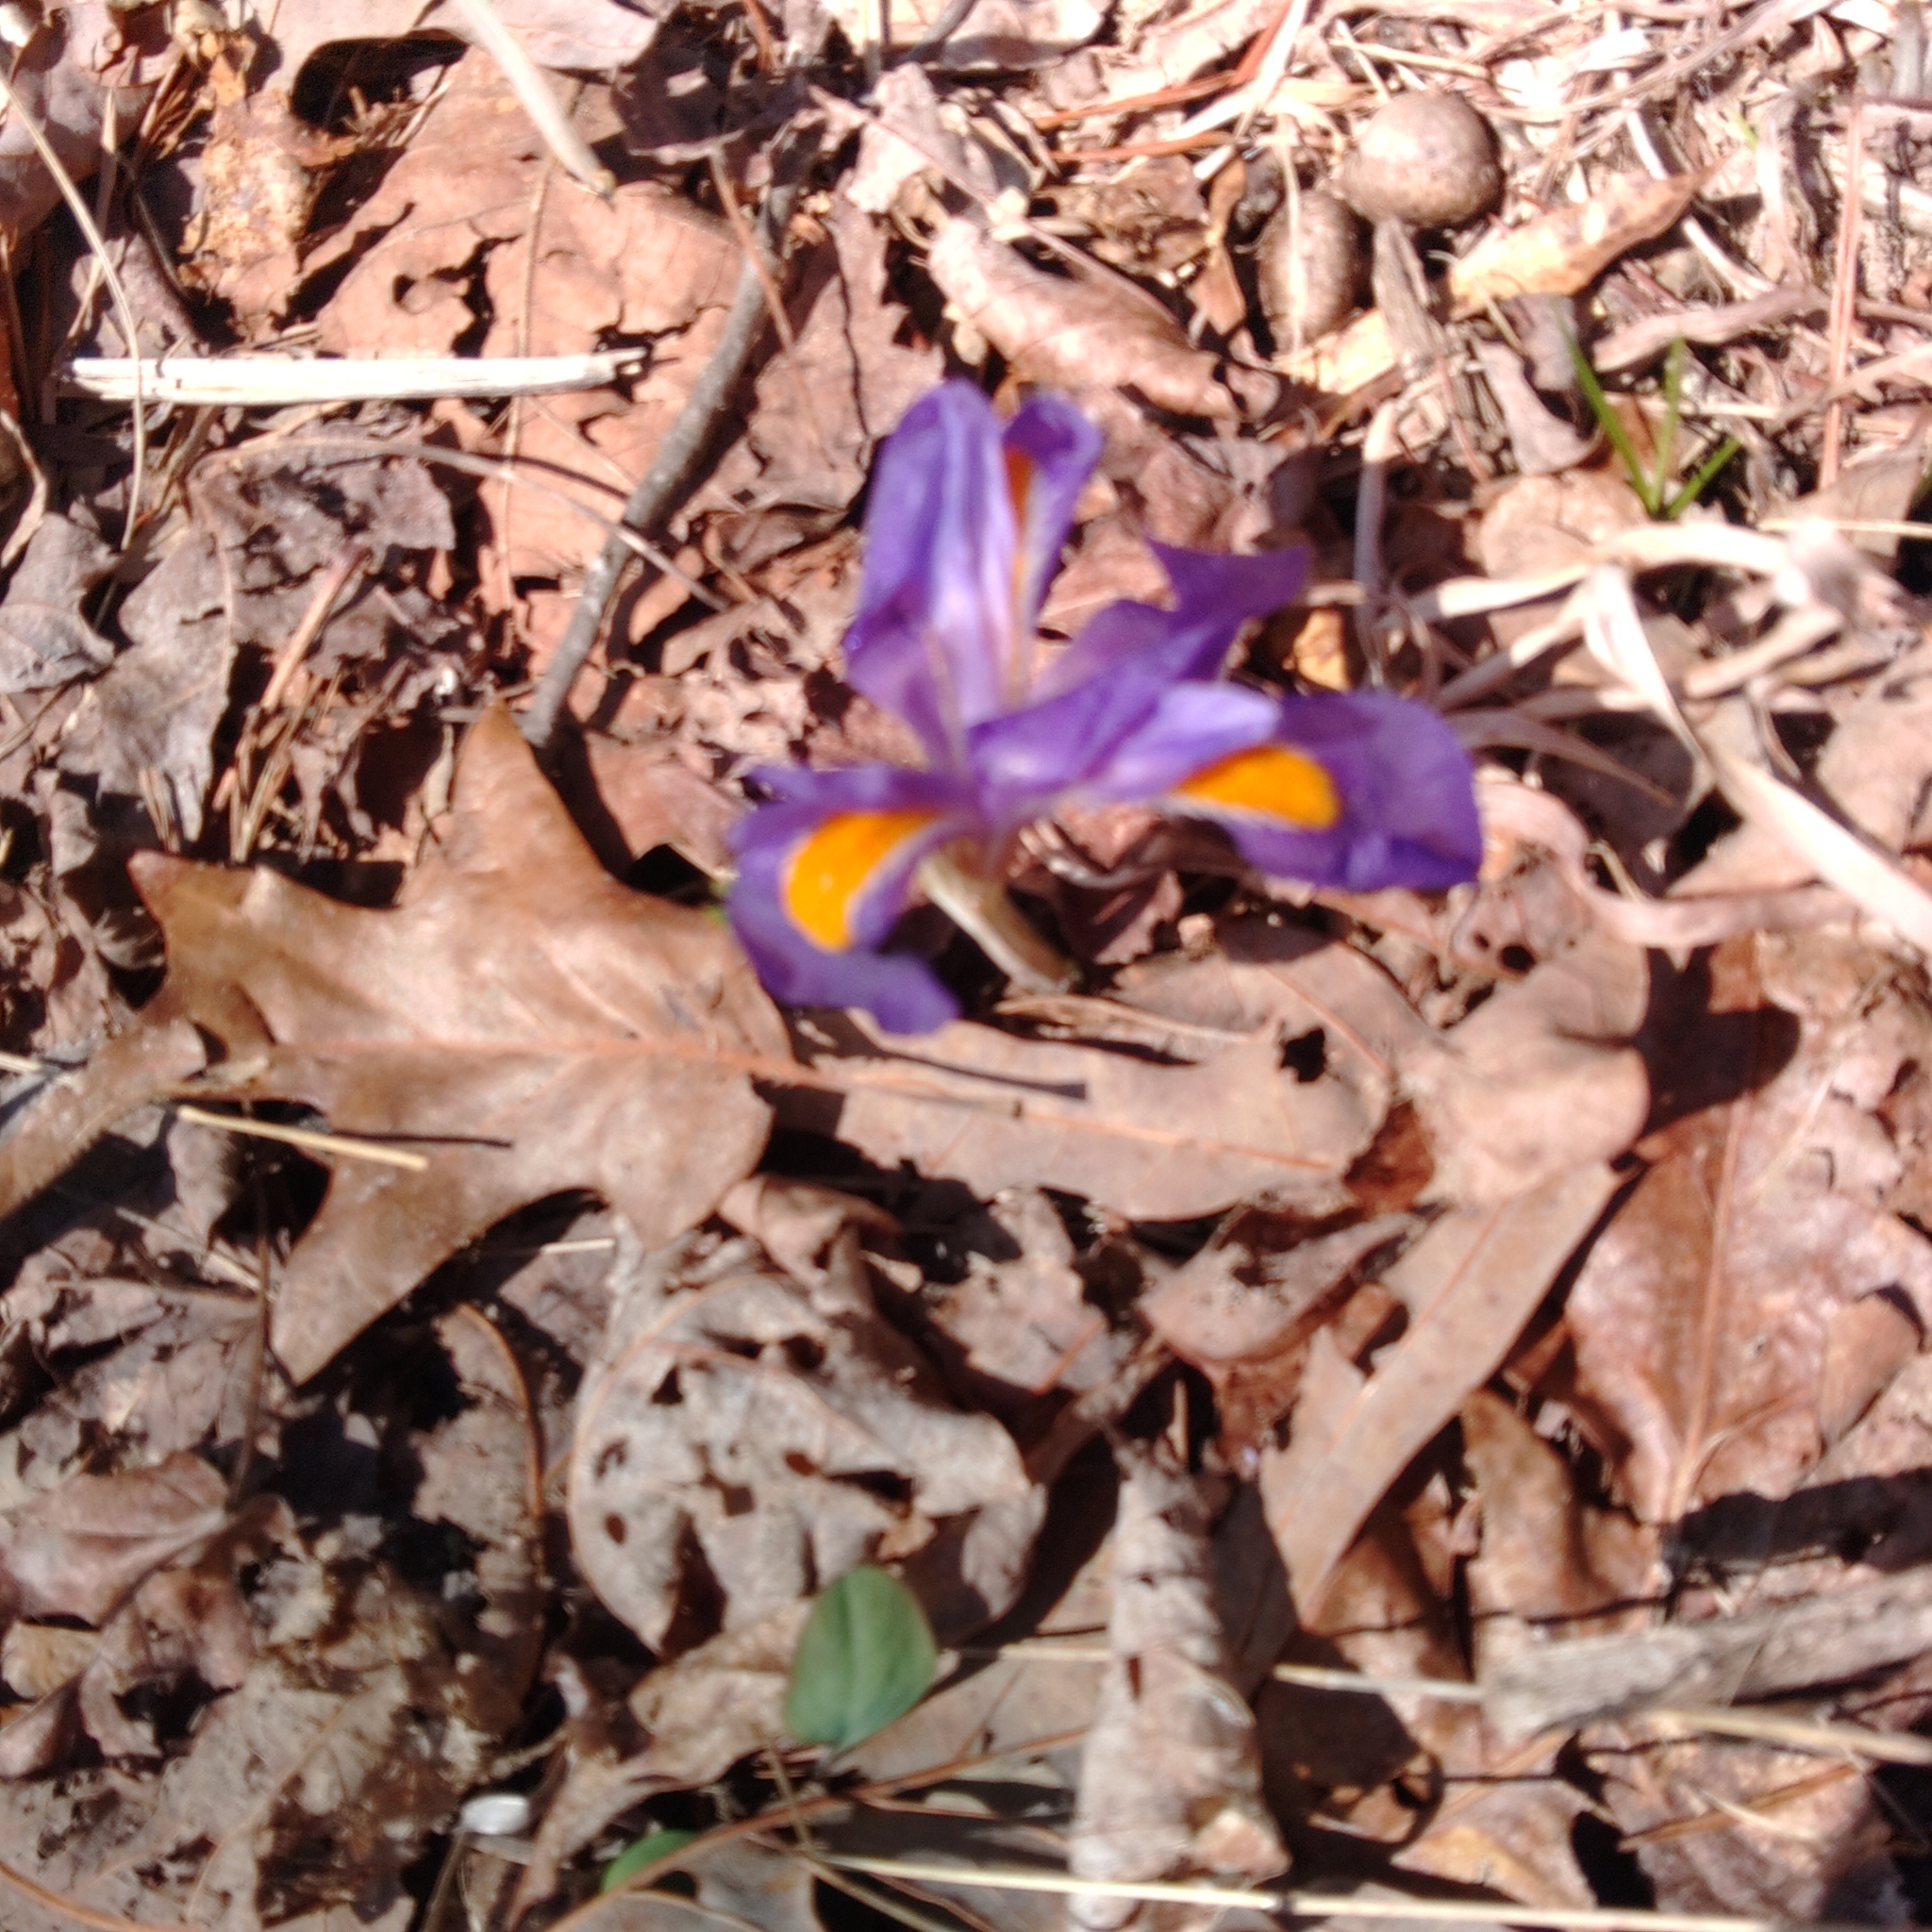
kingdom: Plantae
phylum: Tracheophyta
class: Liliopsida
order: Asparagales
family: Iridaceae
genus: Iris
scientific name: Iris verna
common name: Dwarf iris
